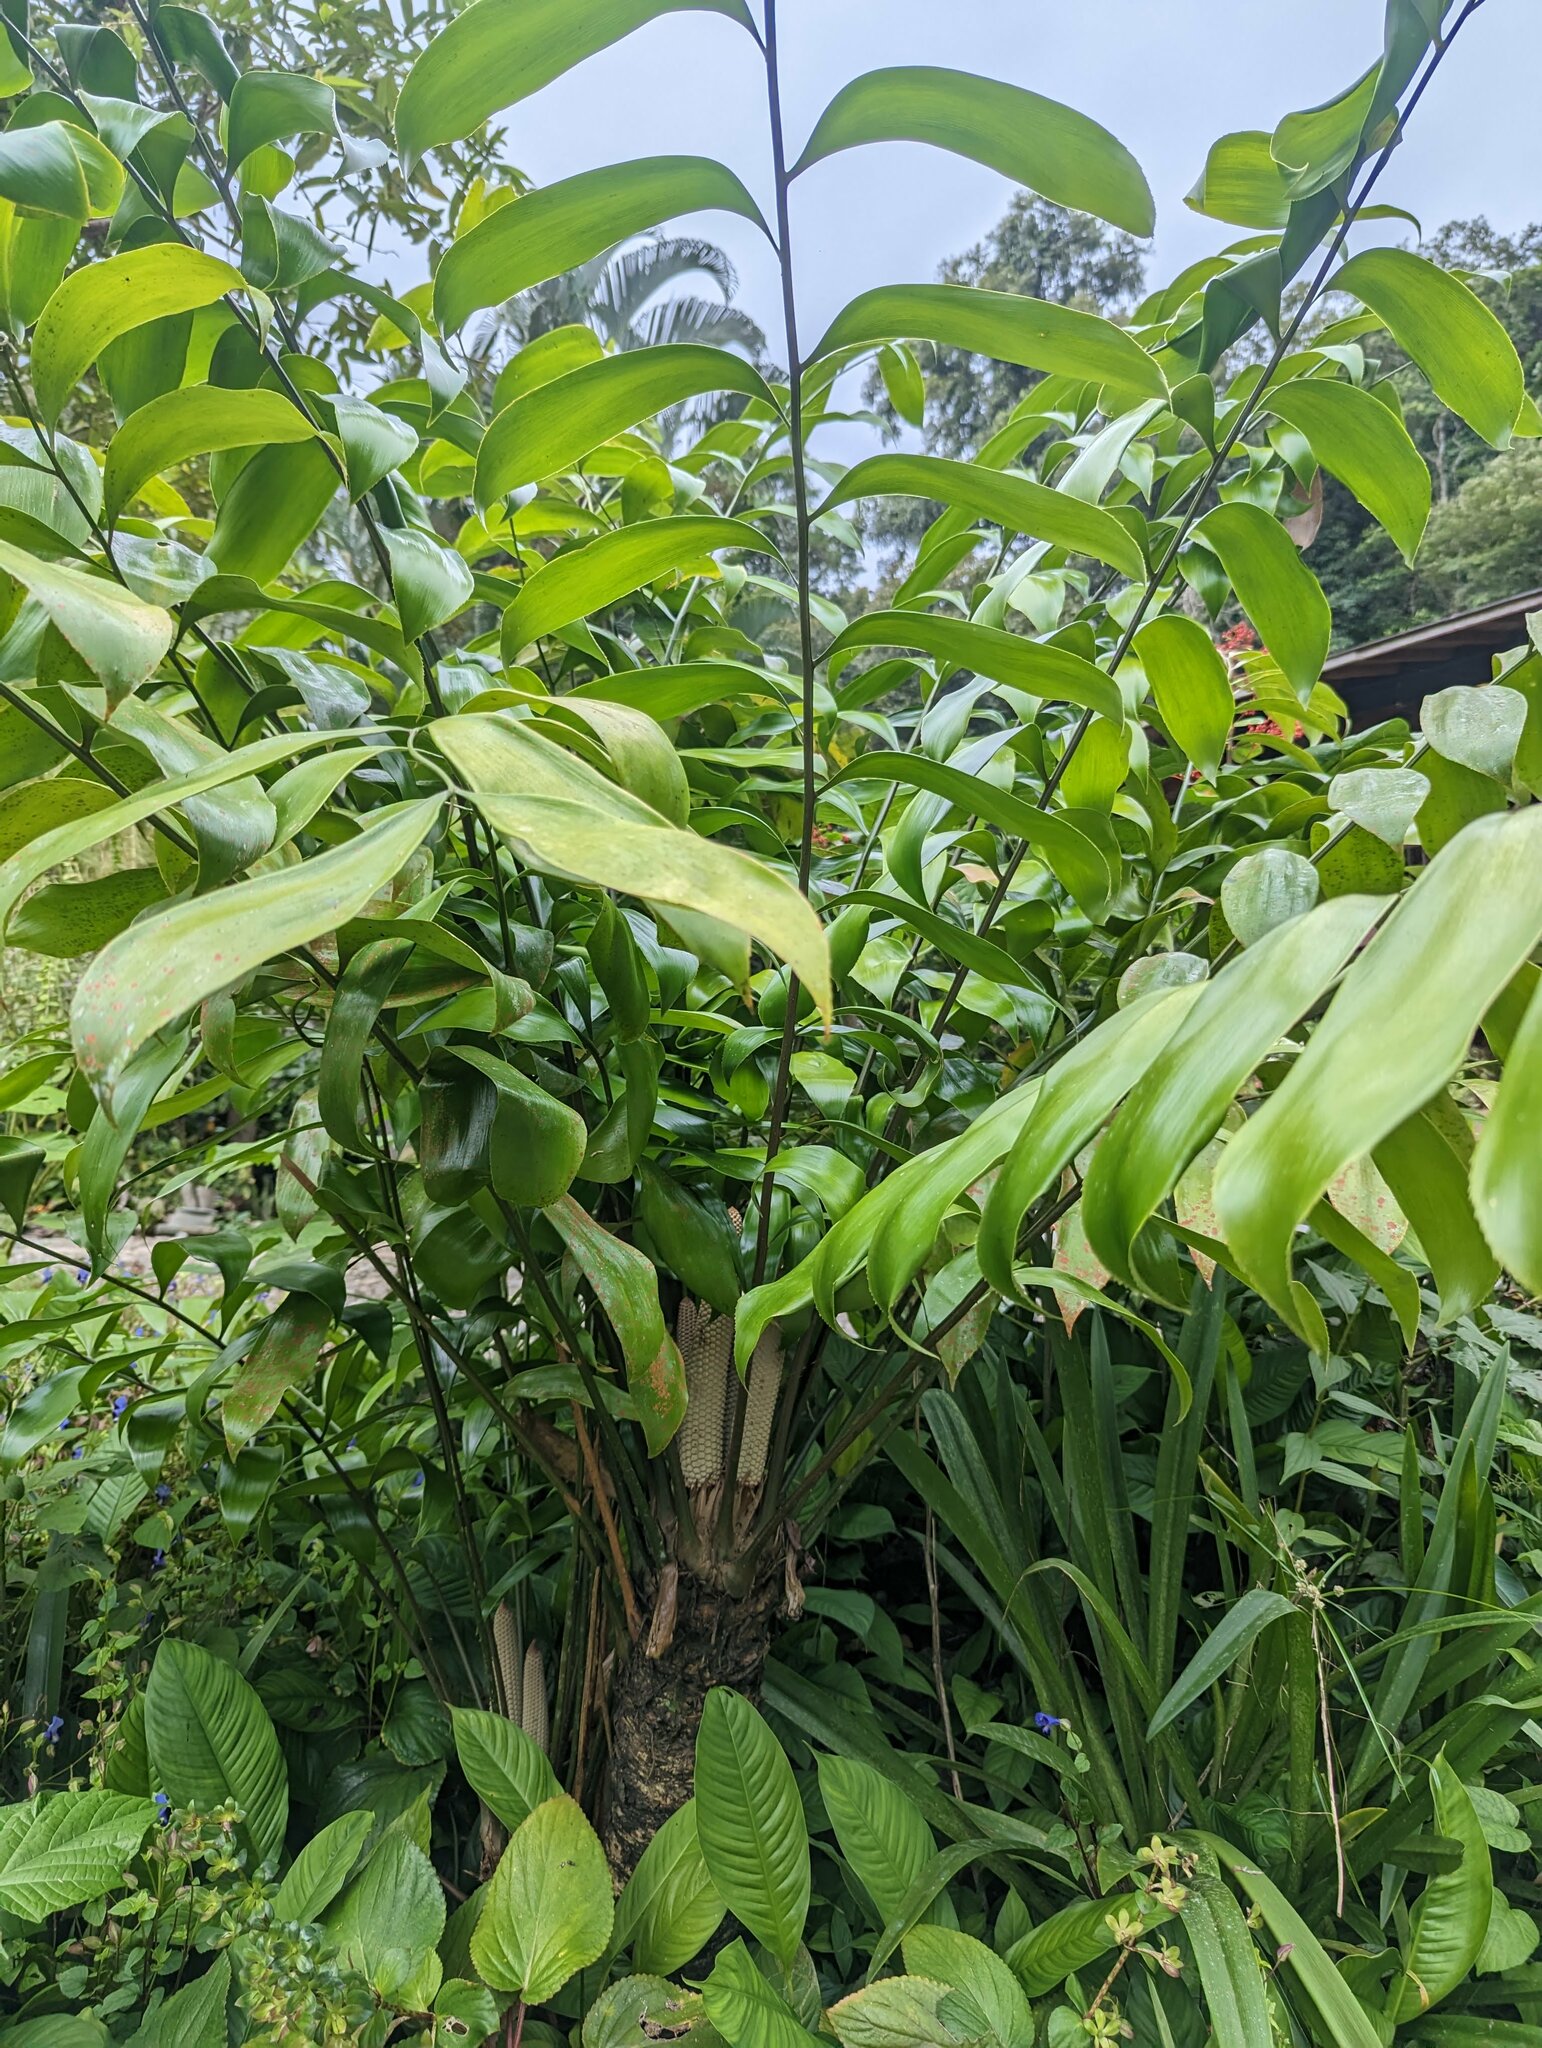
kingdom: Plantae
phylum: Tracheophyta
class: Cycadopsida
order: Cycadales
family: Zamiaceae
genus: Zamia
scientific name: Zamia obliqua
